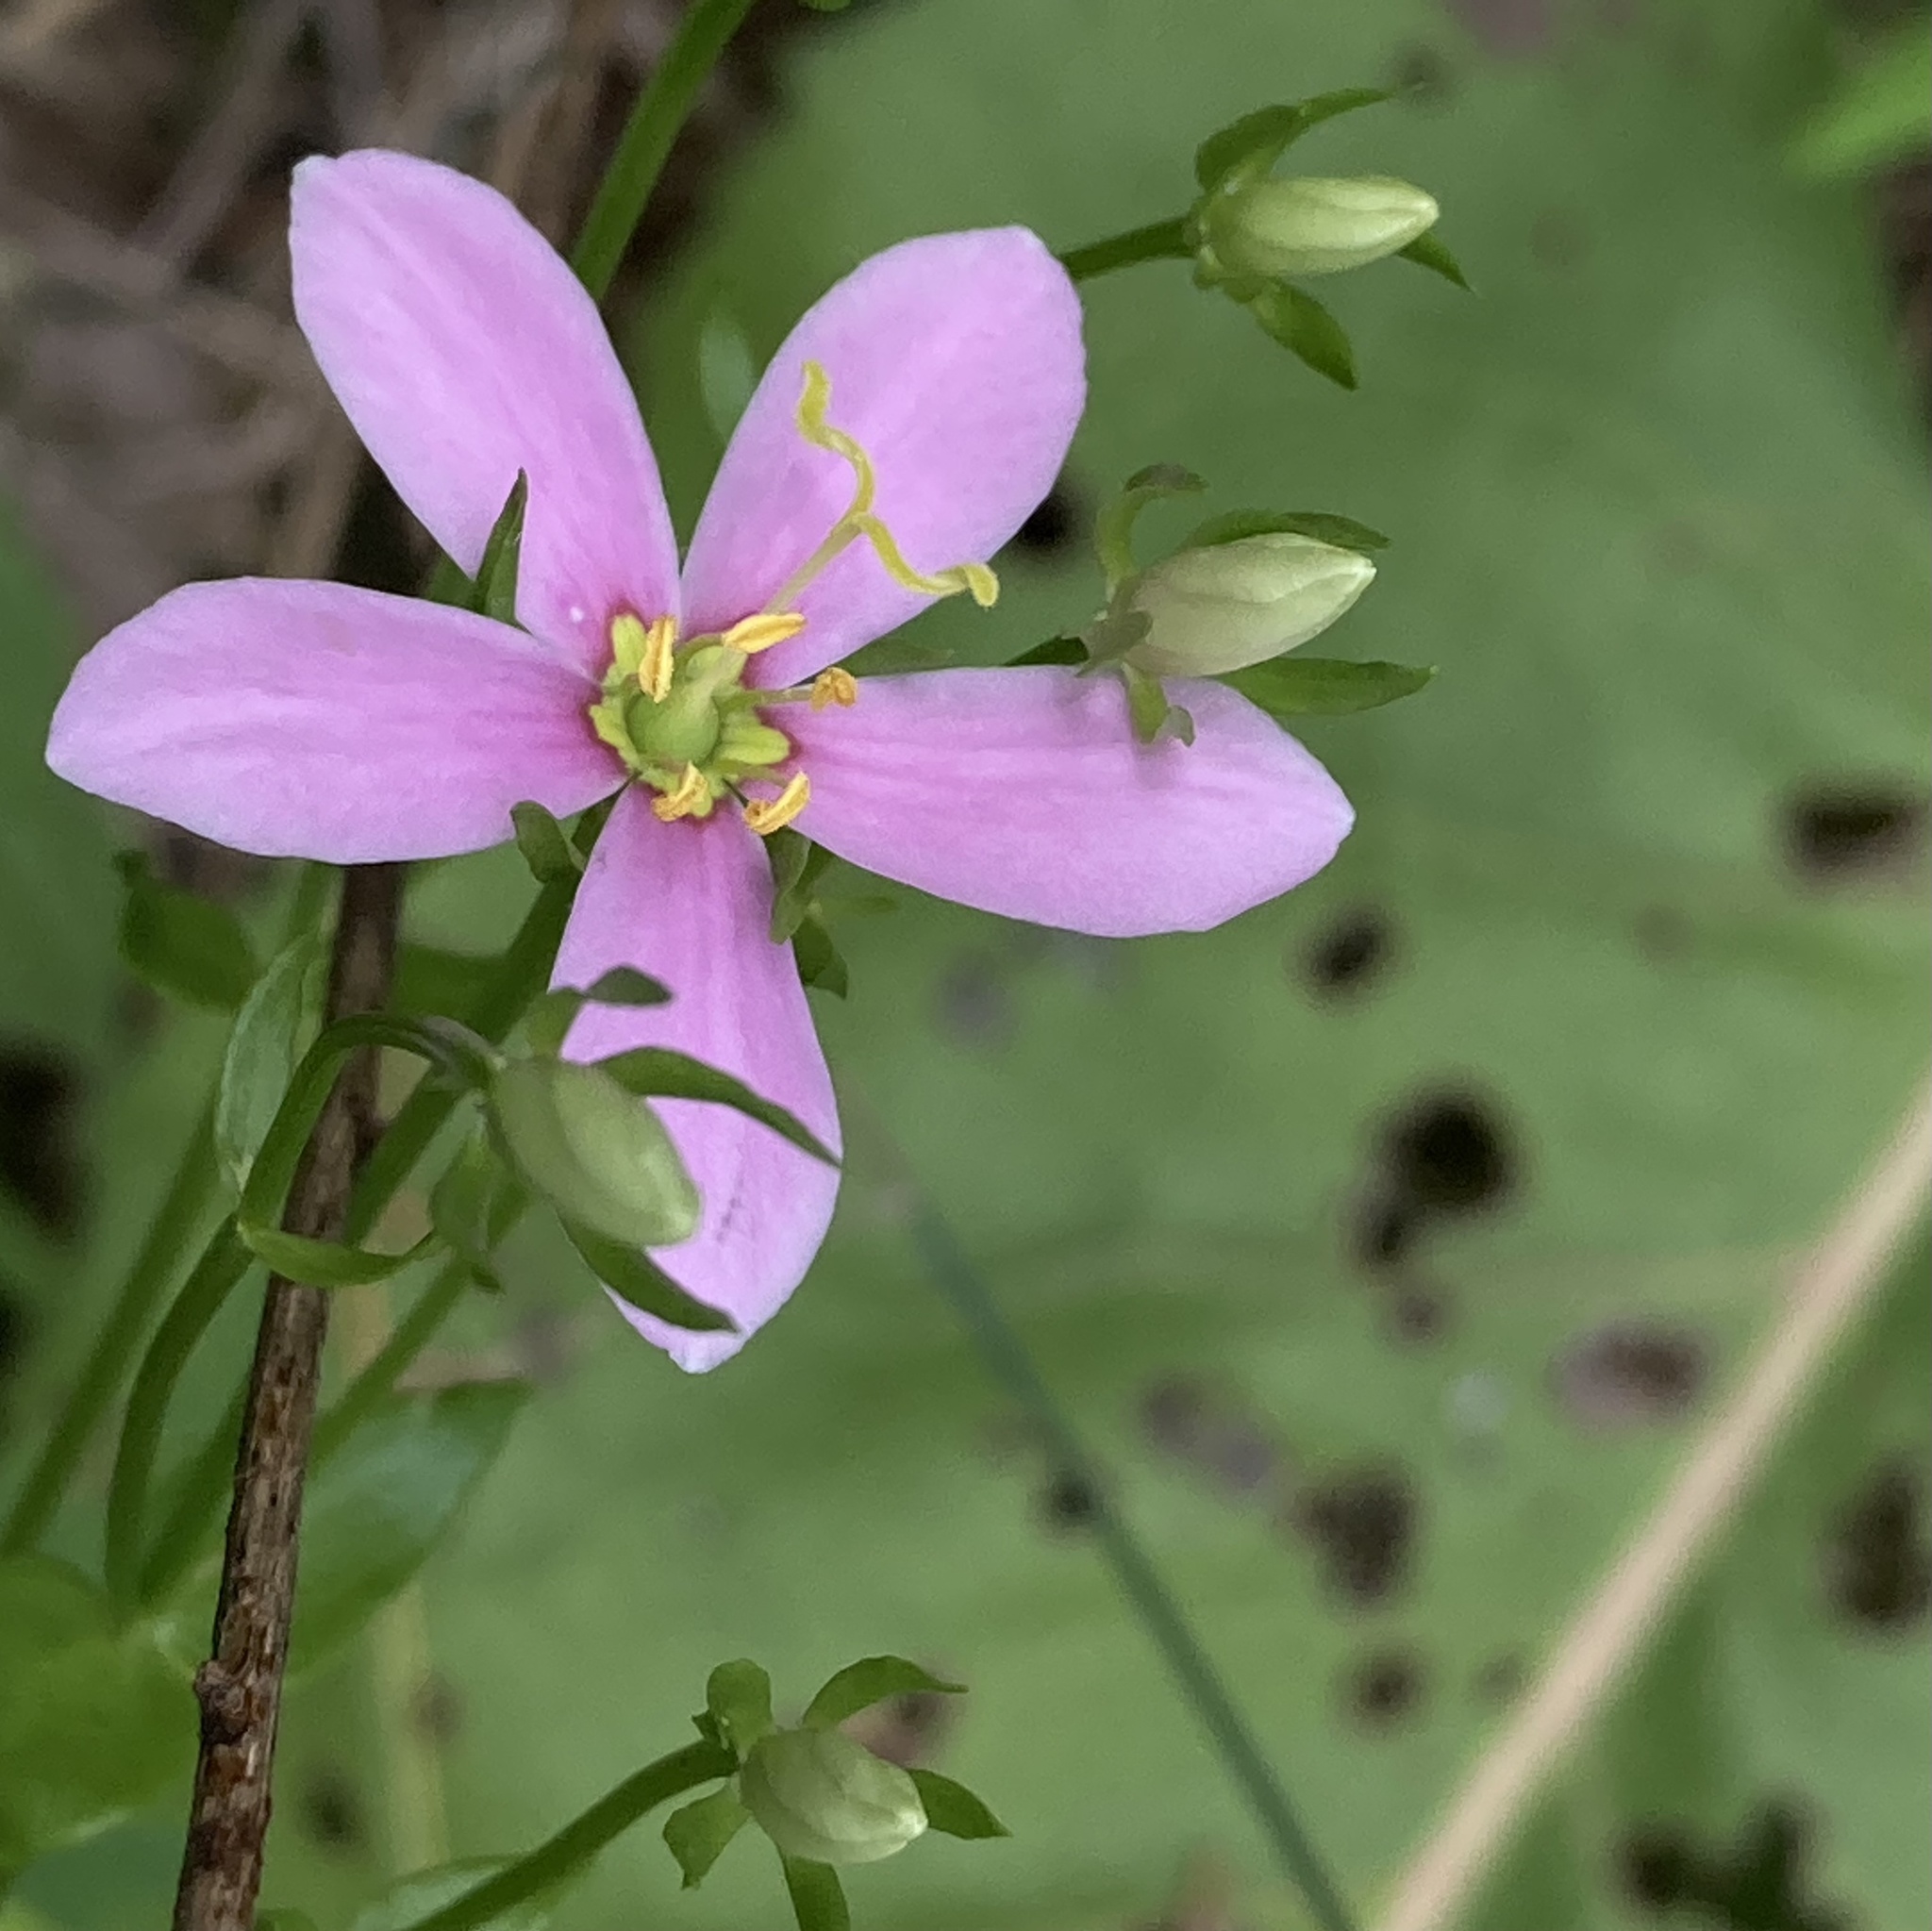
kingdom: Plantae
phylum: Tracheophyta
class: Magnoliopsida
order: Gentianales
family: Gentianaceae
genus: Sabatia
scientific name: Sabatia angularis
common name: Rose-pink
